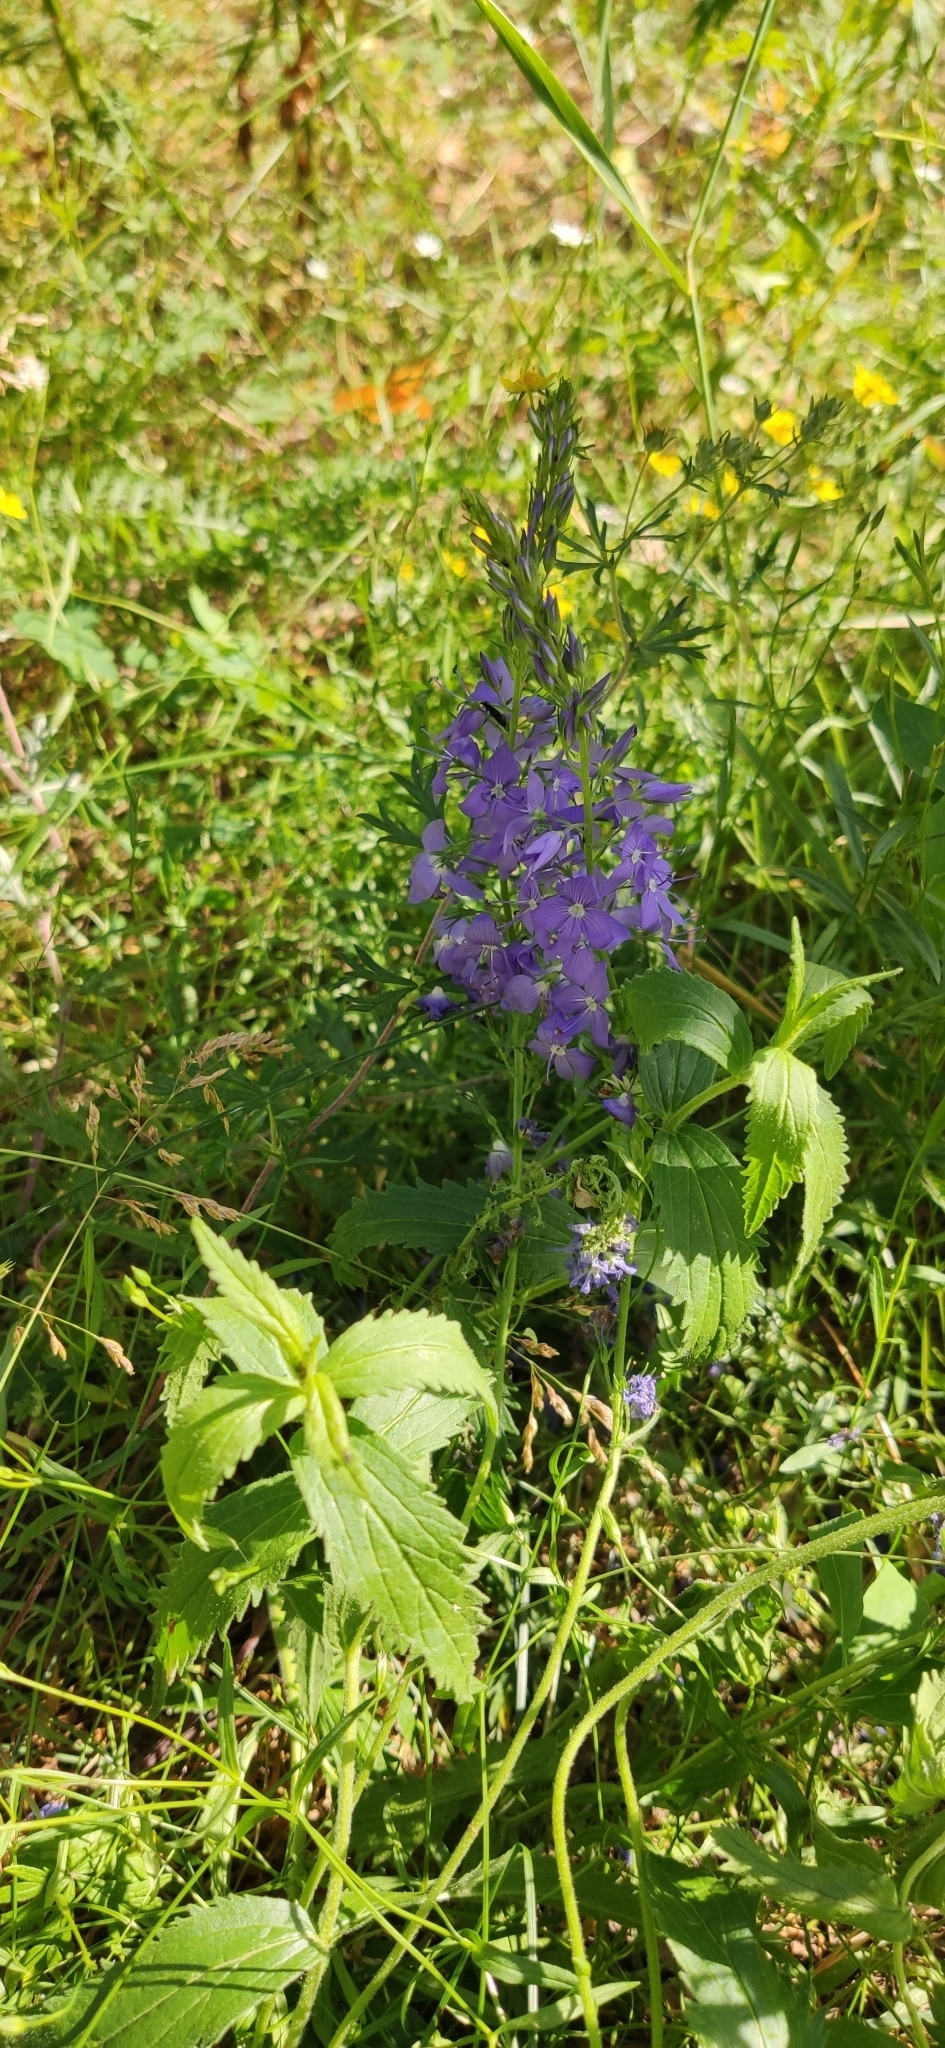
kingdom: Plantae
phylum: Tracheophyta
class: Magnoliopsida
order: Lamiales
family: Plantaginaceae
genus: Veronica
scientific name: Veronica teucrium
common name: Large speedwell
